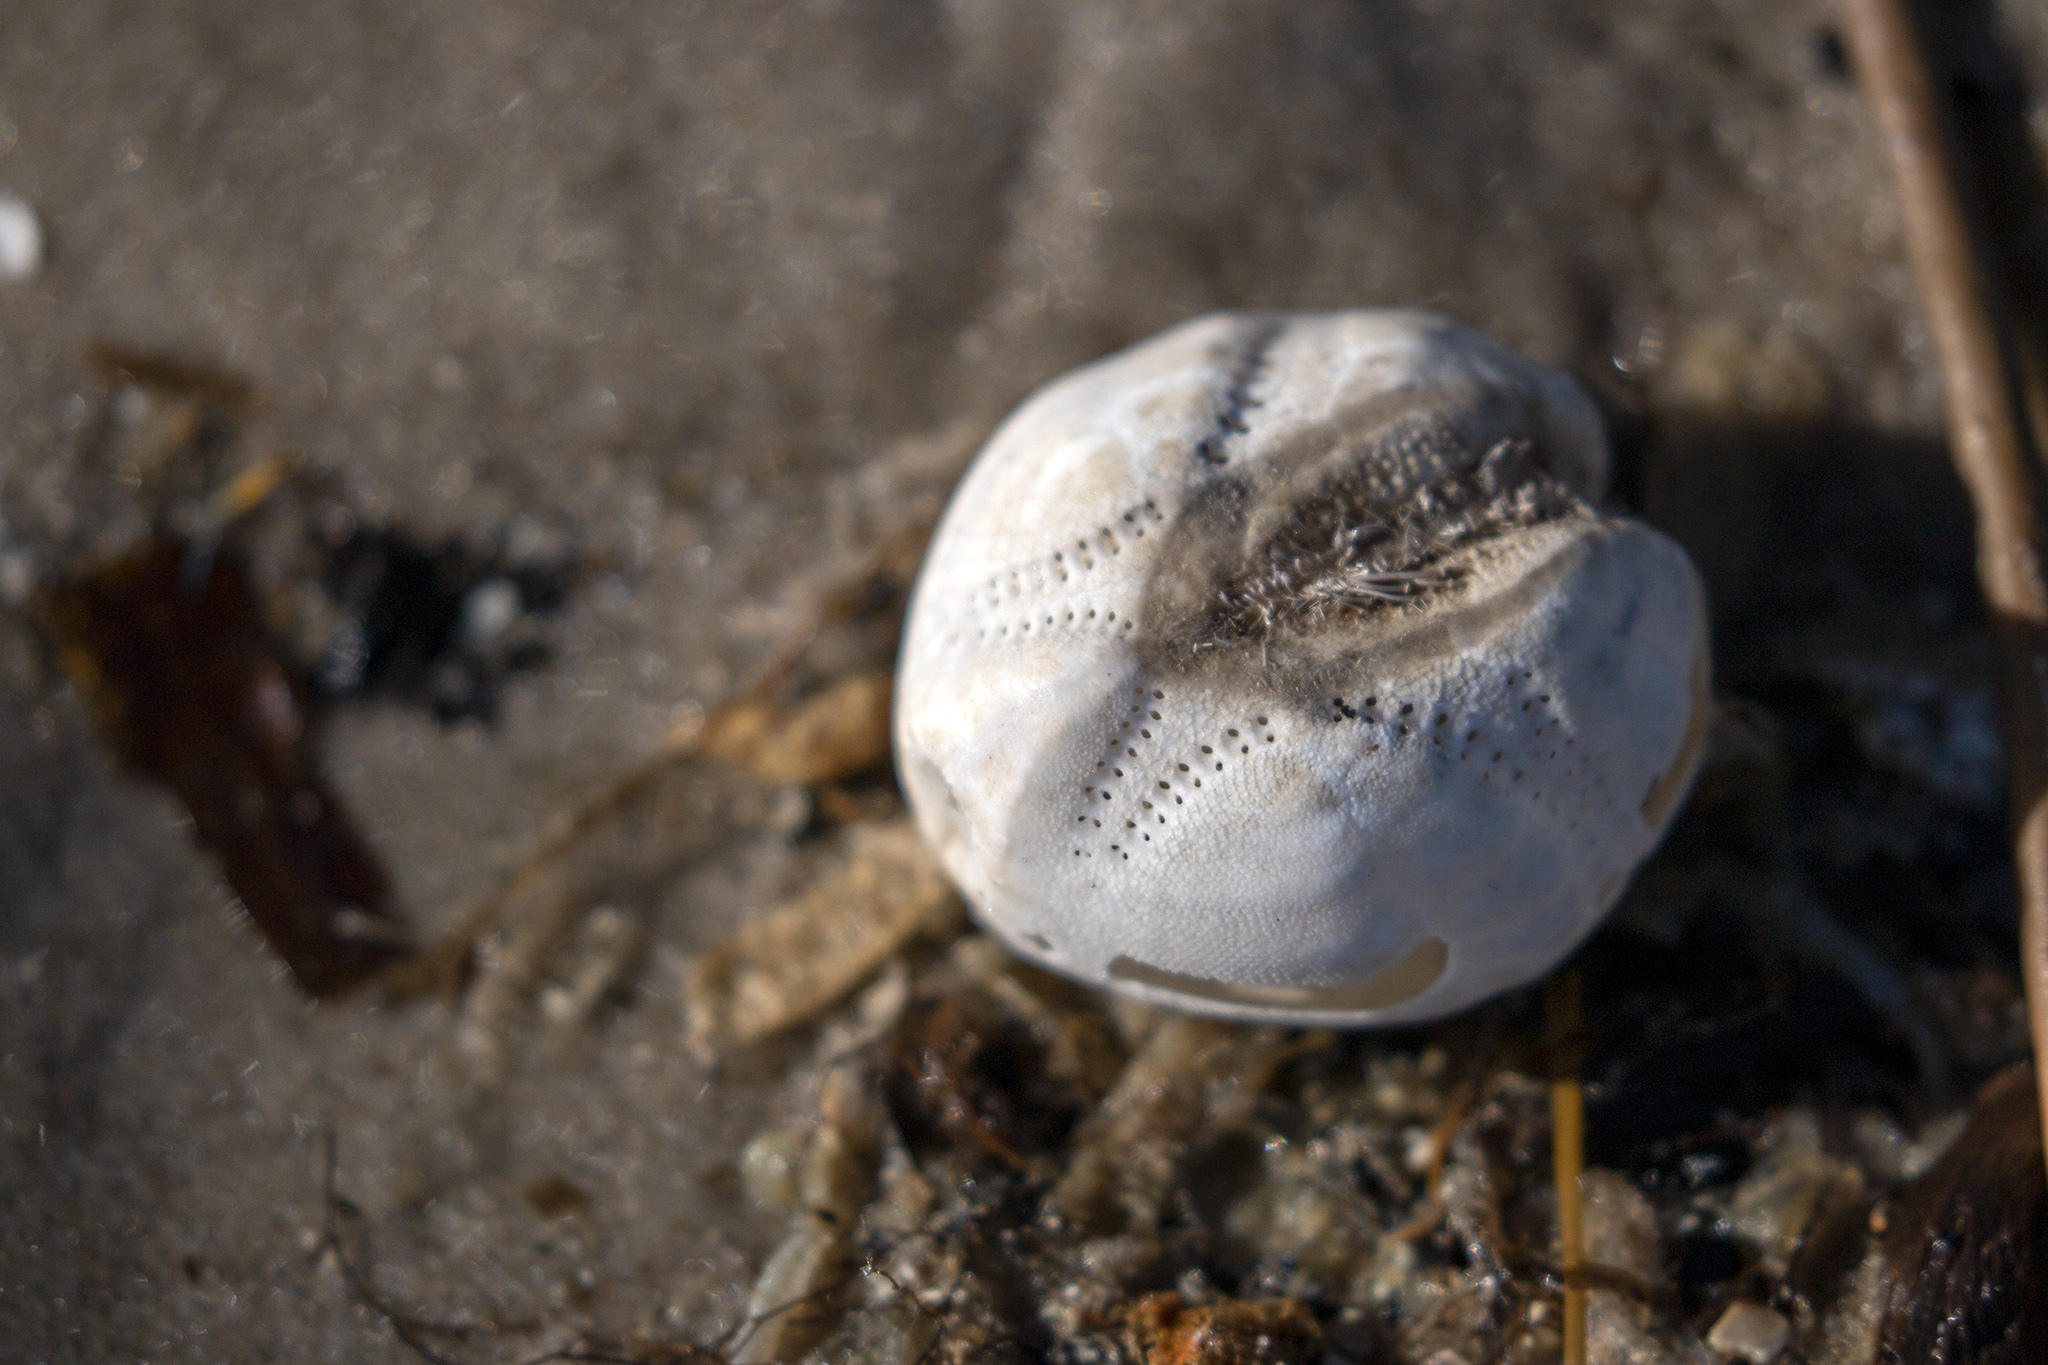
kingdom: Animalia
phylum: Echinodermata
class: Echinoidea
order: Spatangoida
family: Loveniidae
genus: Echinocardium
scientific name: Echinocardium cordatum
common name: Heart-urchin
